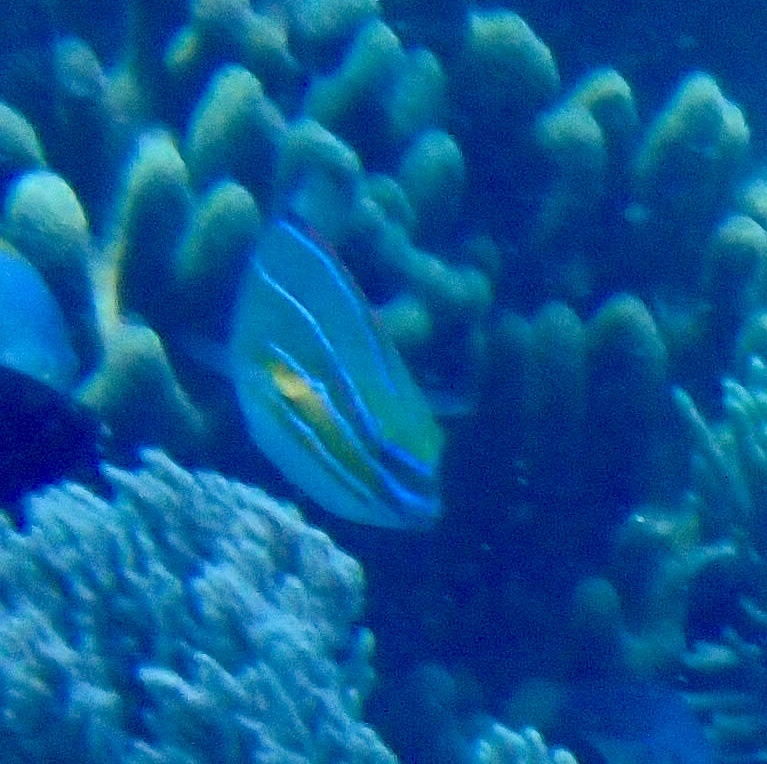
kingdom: Animalia
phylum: Chordata
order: Perciformes
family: Labridae
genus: Stethojulis
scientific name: Stethojulis trilineata
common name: Blue-ribbon wrasse
